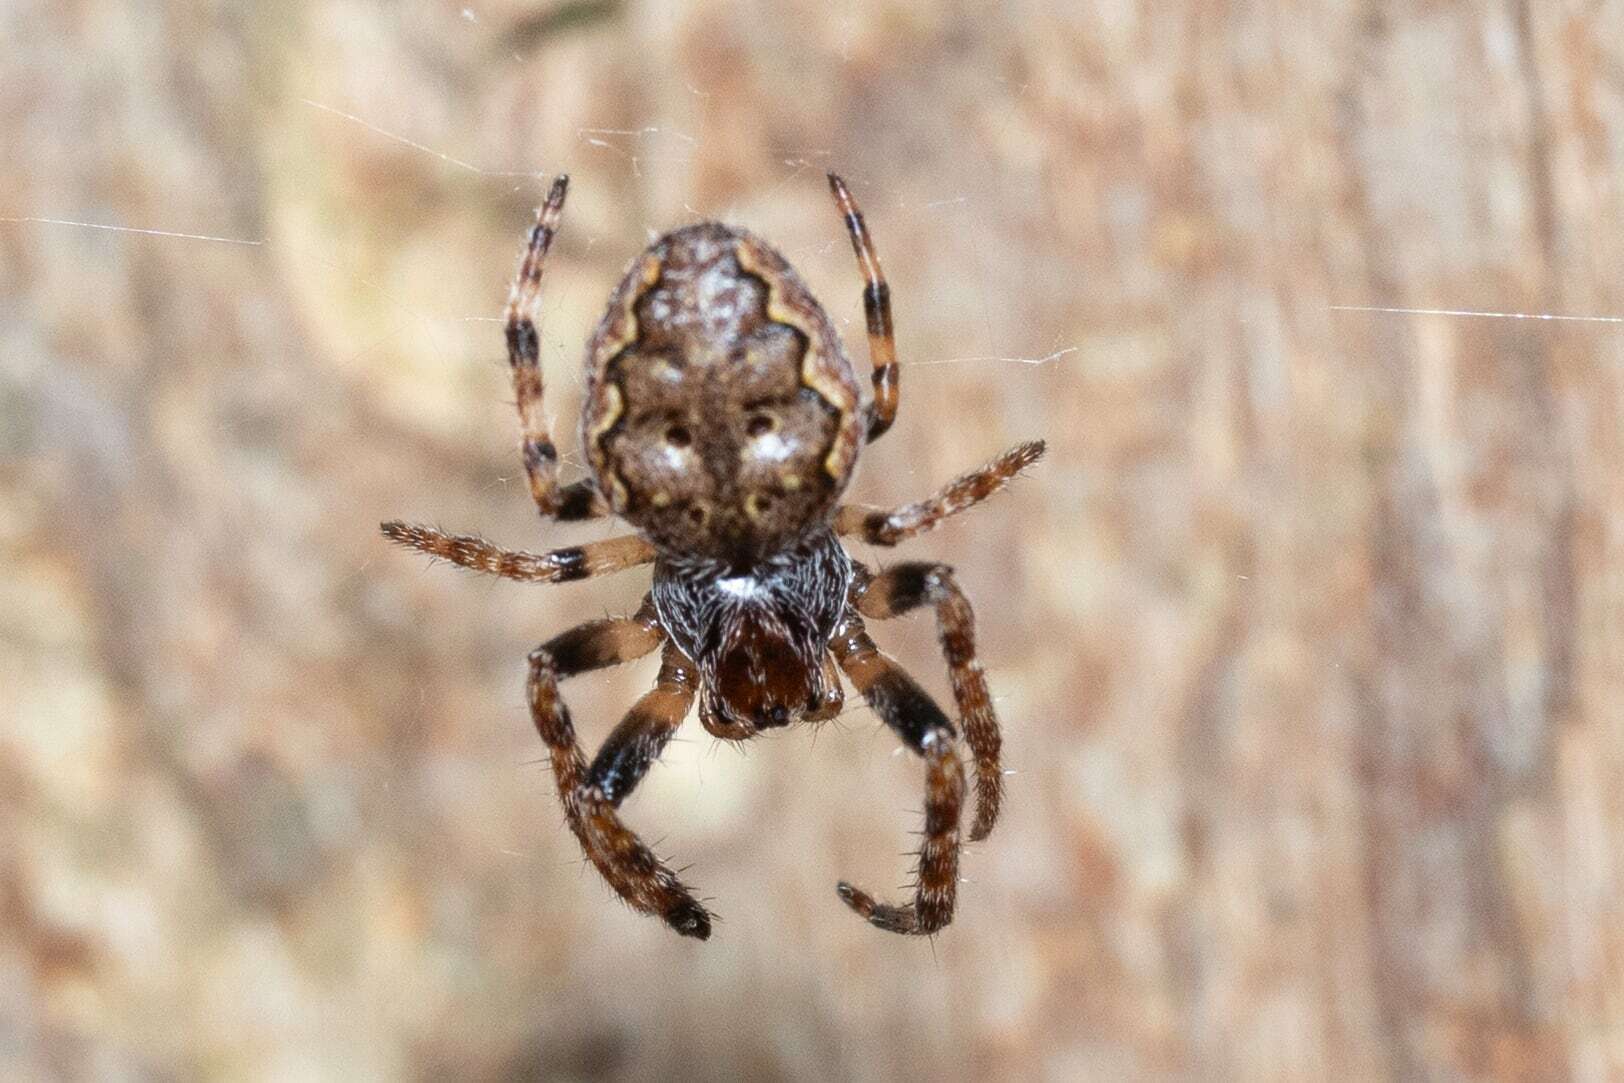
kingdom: Animalia
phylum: Arthropoda
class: Arachnida
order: Araneae
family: Araneidae
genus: Nuctenea
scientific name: Nuctenea umbratica
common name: Toad spider
